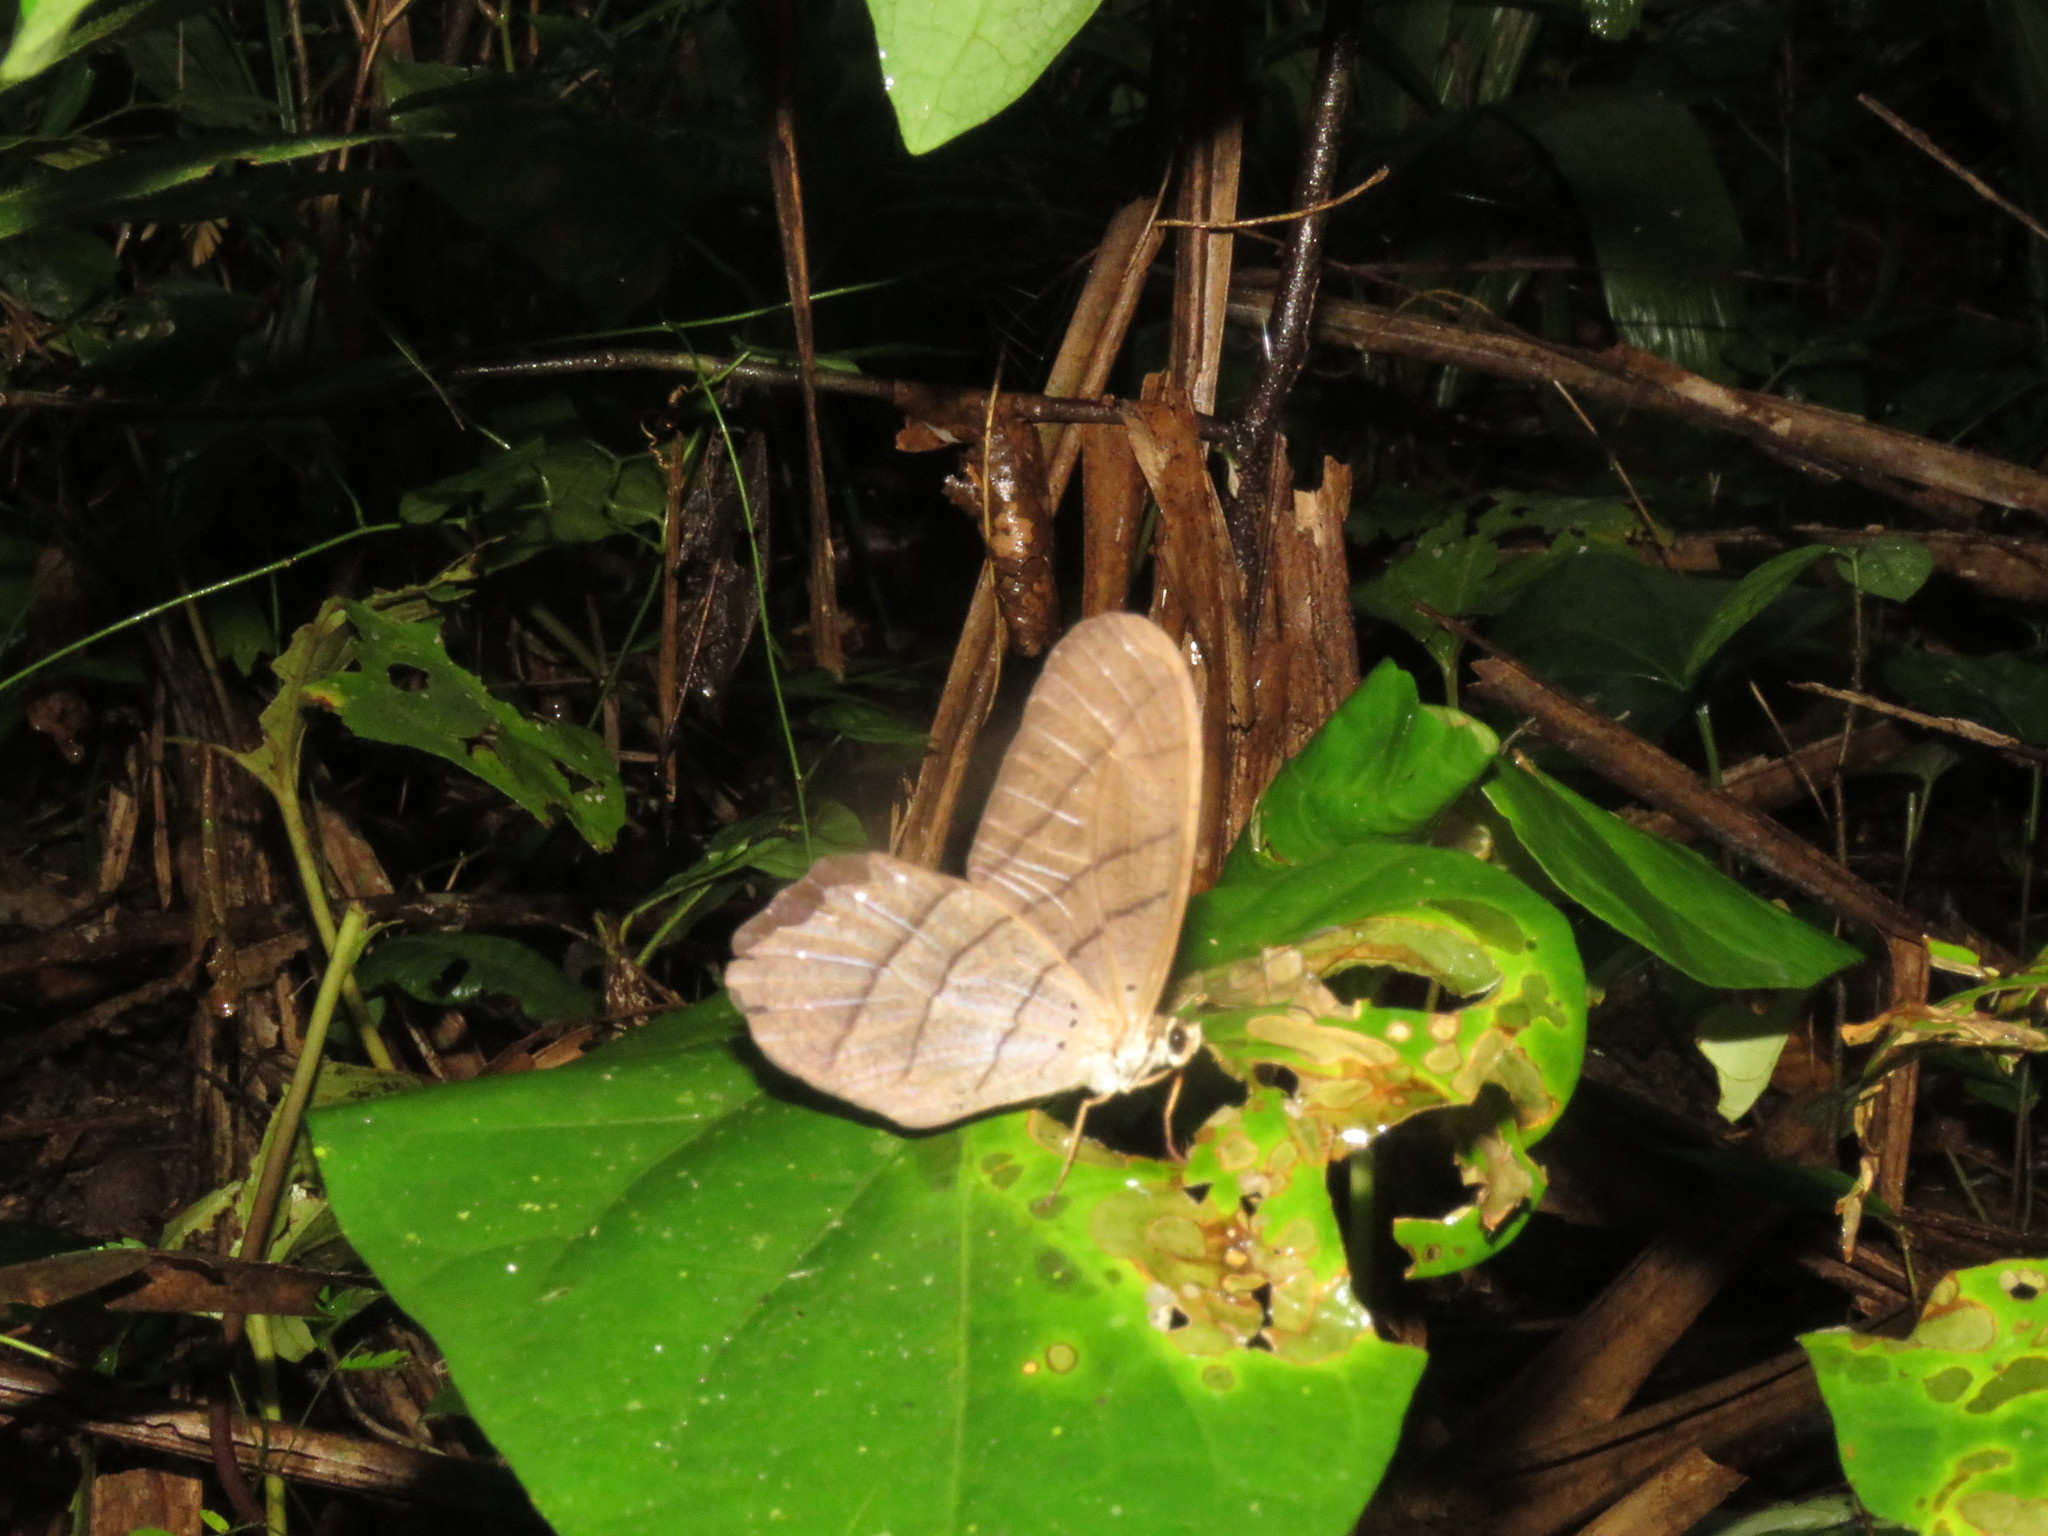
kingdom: Animalia
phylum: Arthropoda
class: Insecta
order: Lepidoptera
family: Nymphalidae
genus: Pierella
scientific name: Pierella rhea
